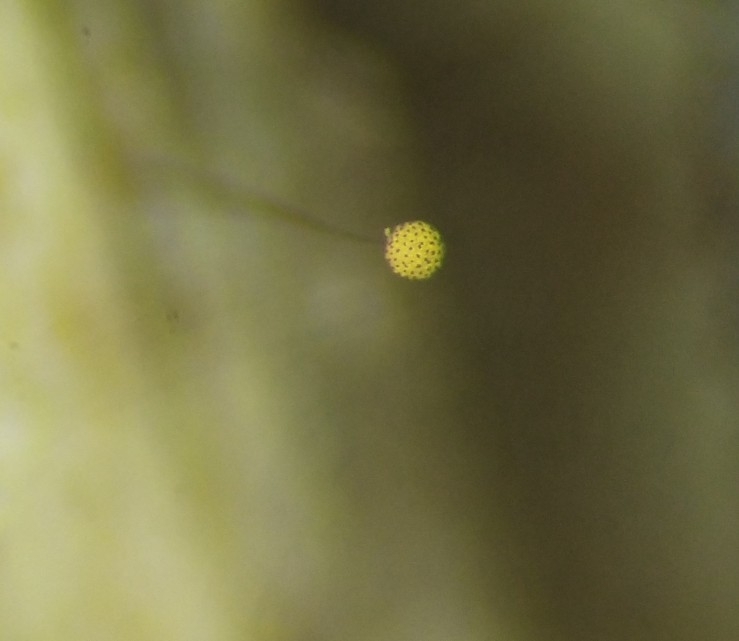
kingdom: Protozoa
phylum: Mycetozoa
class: Myxomycetes
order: Cribrariales
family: Cribrariaceae
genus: Cribraria
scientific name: Cribraria microcarpa
